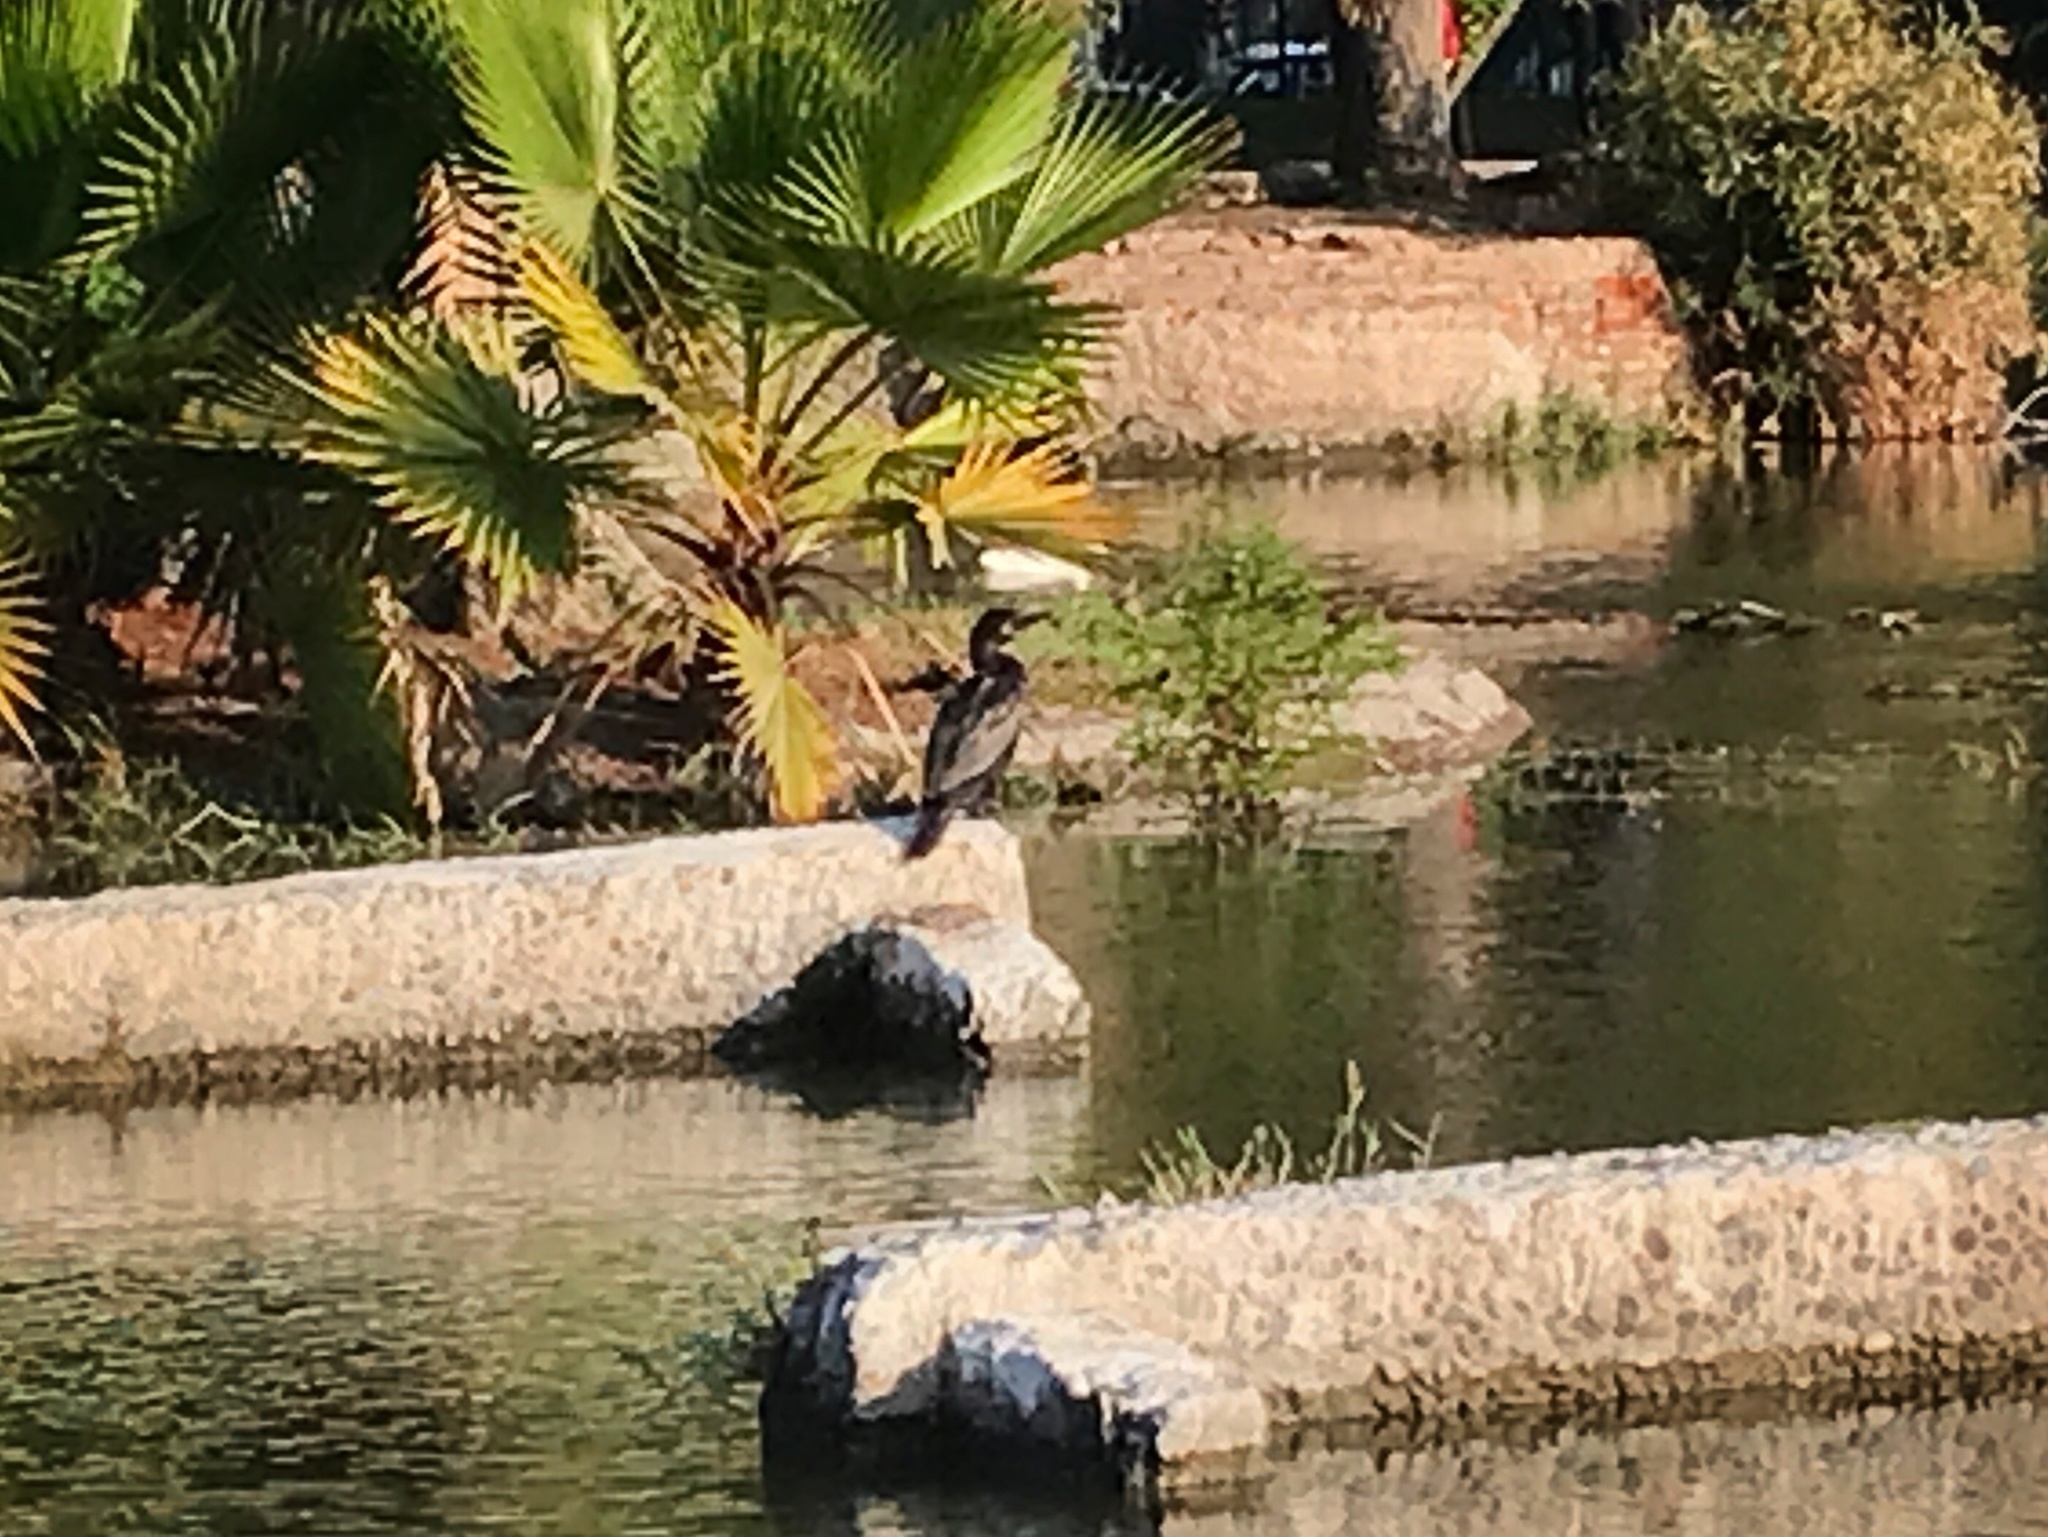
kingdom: Animalia
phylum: Chordata
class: Aves
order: Suliformes
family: Phalacrocoracidae
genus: Phalacrocorax
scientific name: Phalacrocorax brasilianus
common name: Neotropic cormorant
